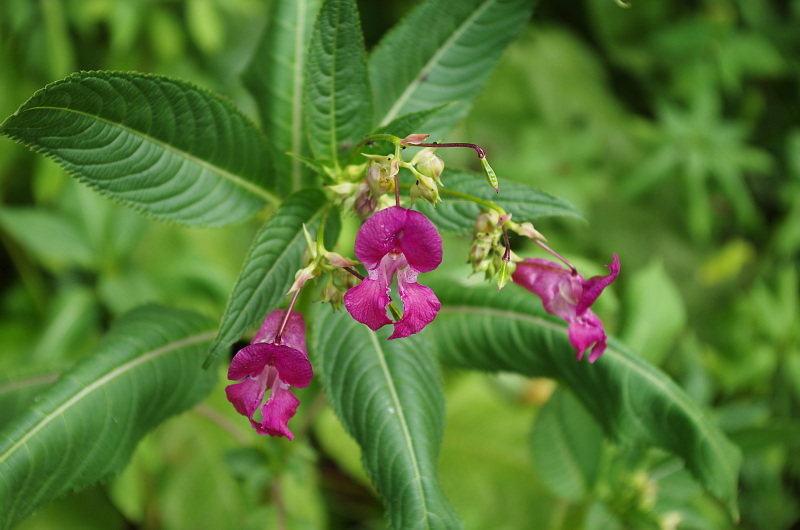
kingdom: Plantae
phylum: Tracheophyta
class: Magnoliopsida
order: Ericales
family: Balsaminaceae
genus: Impatiens
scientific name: Impatiens glandulifera
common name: Himalayan balsam
